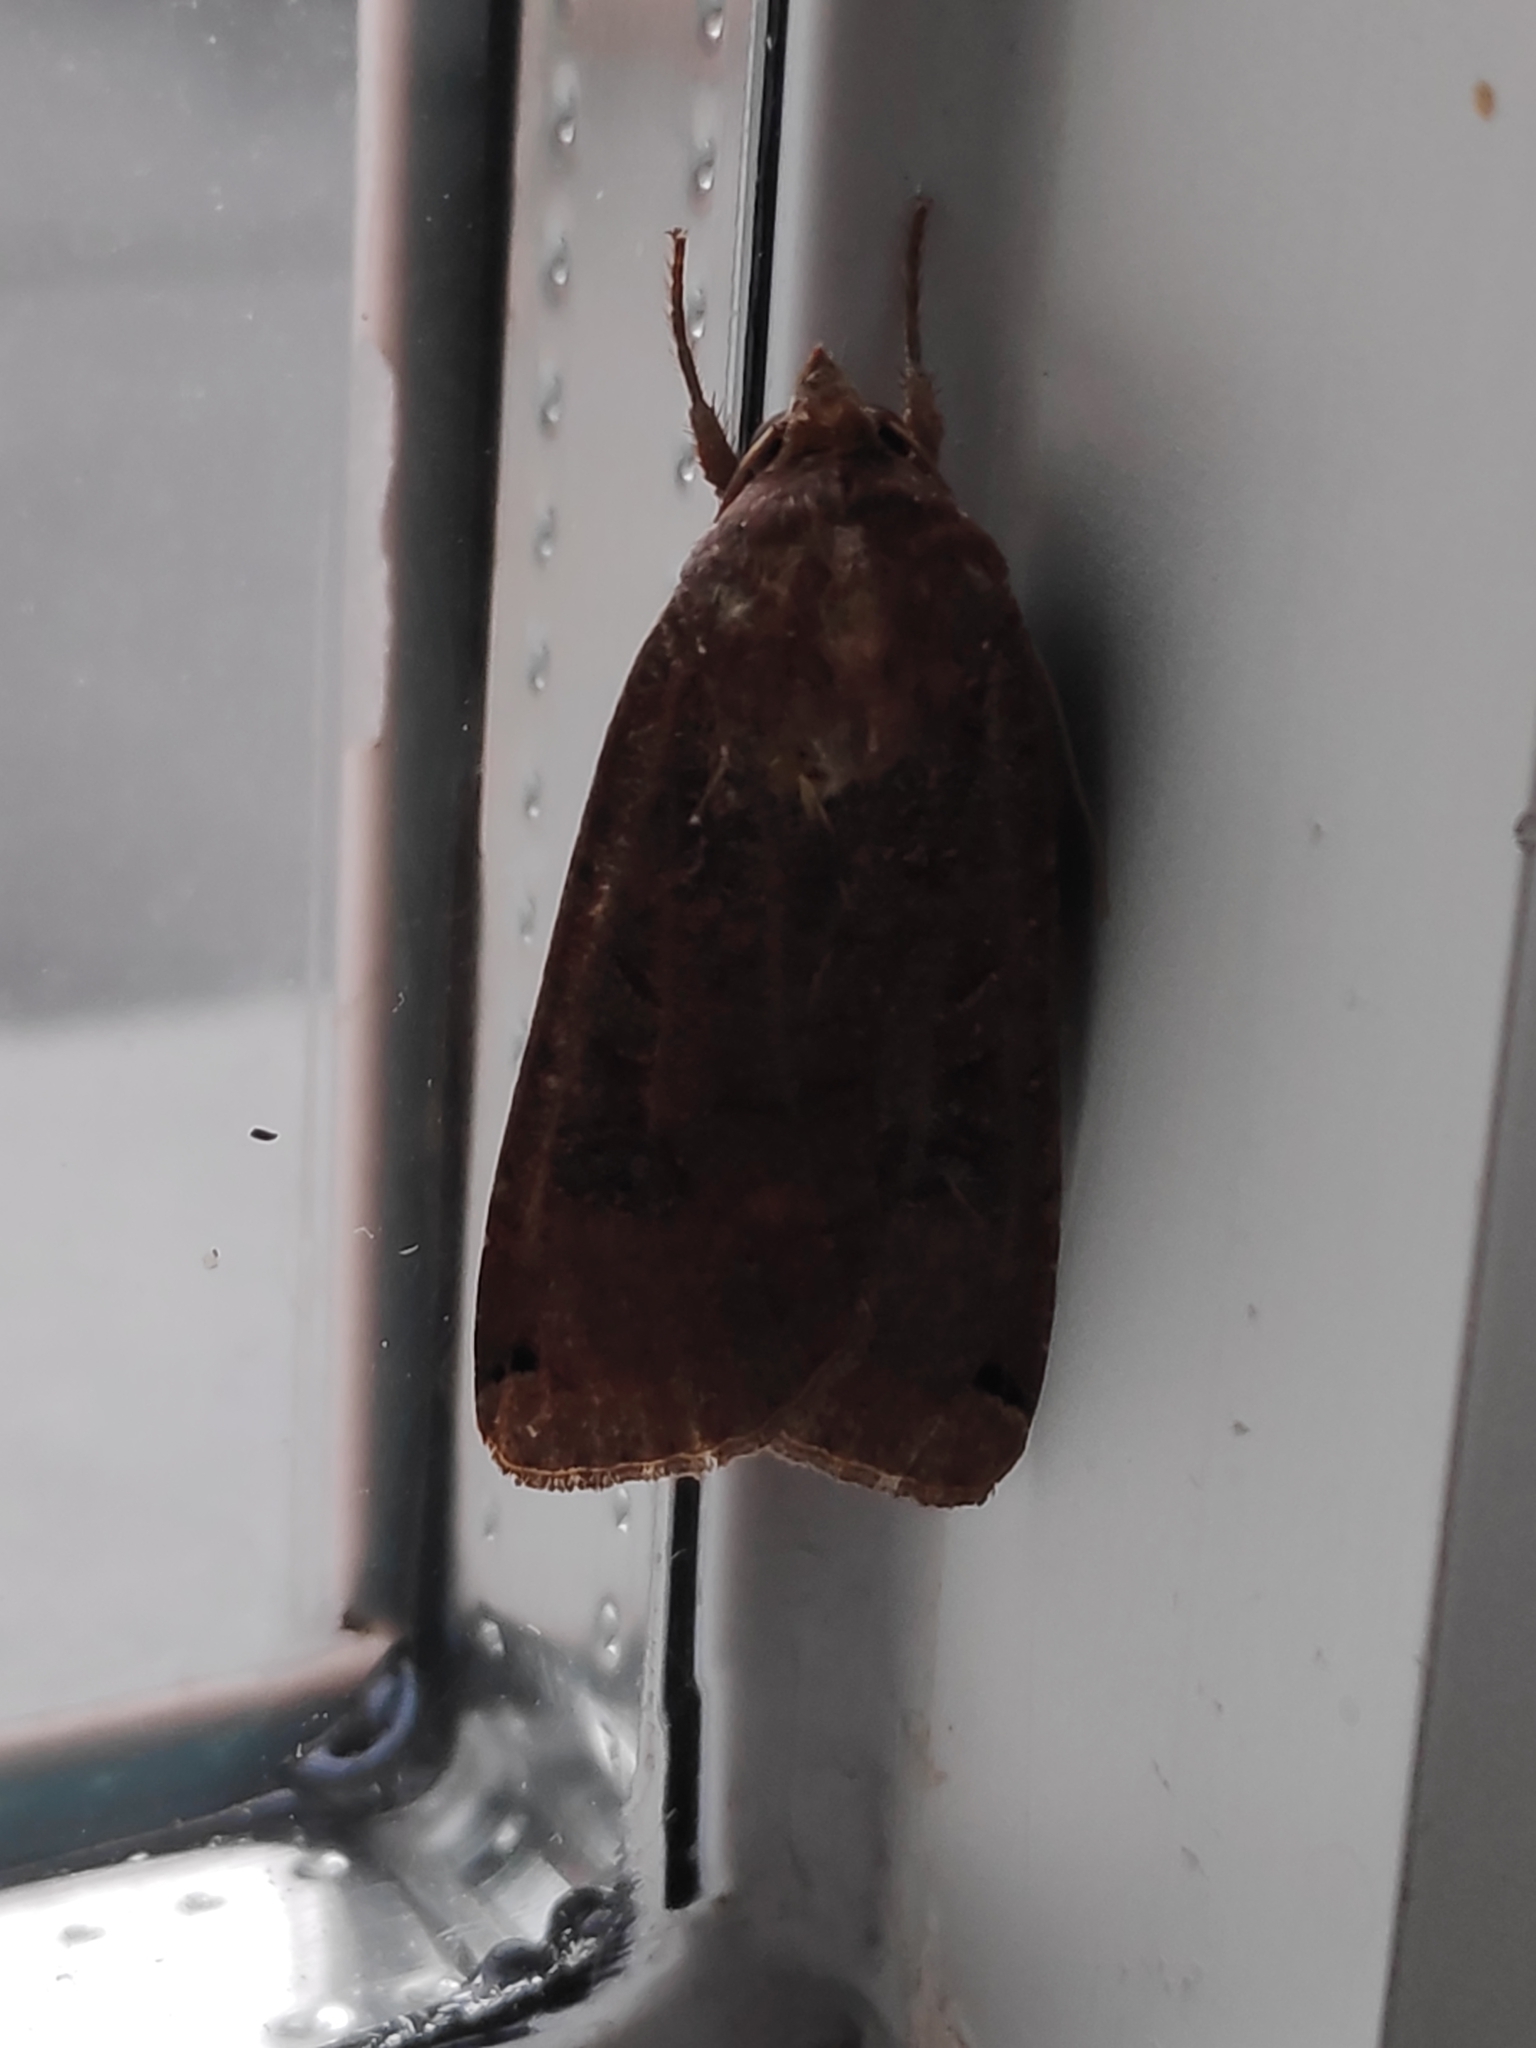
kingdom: Animalia
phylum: Arthropoda
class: Insecta
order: Lepidoptera
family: Noctuidae
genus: Noctua
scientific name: Noctua pronuba
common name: Large yellow underwing
